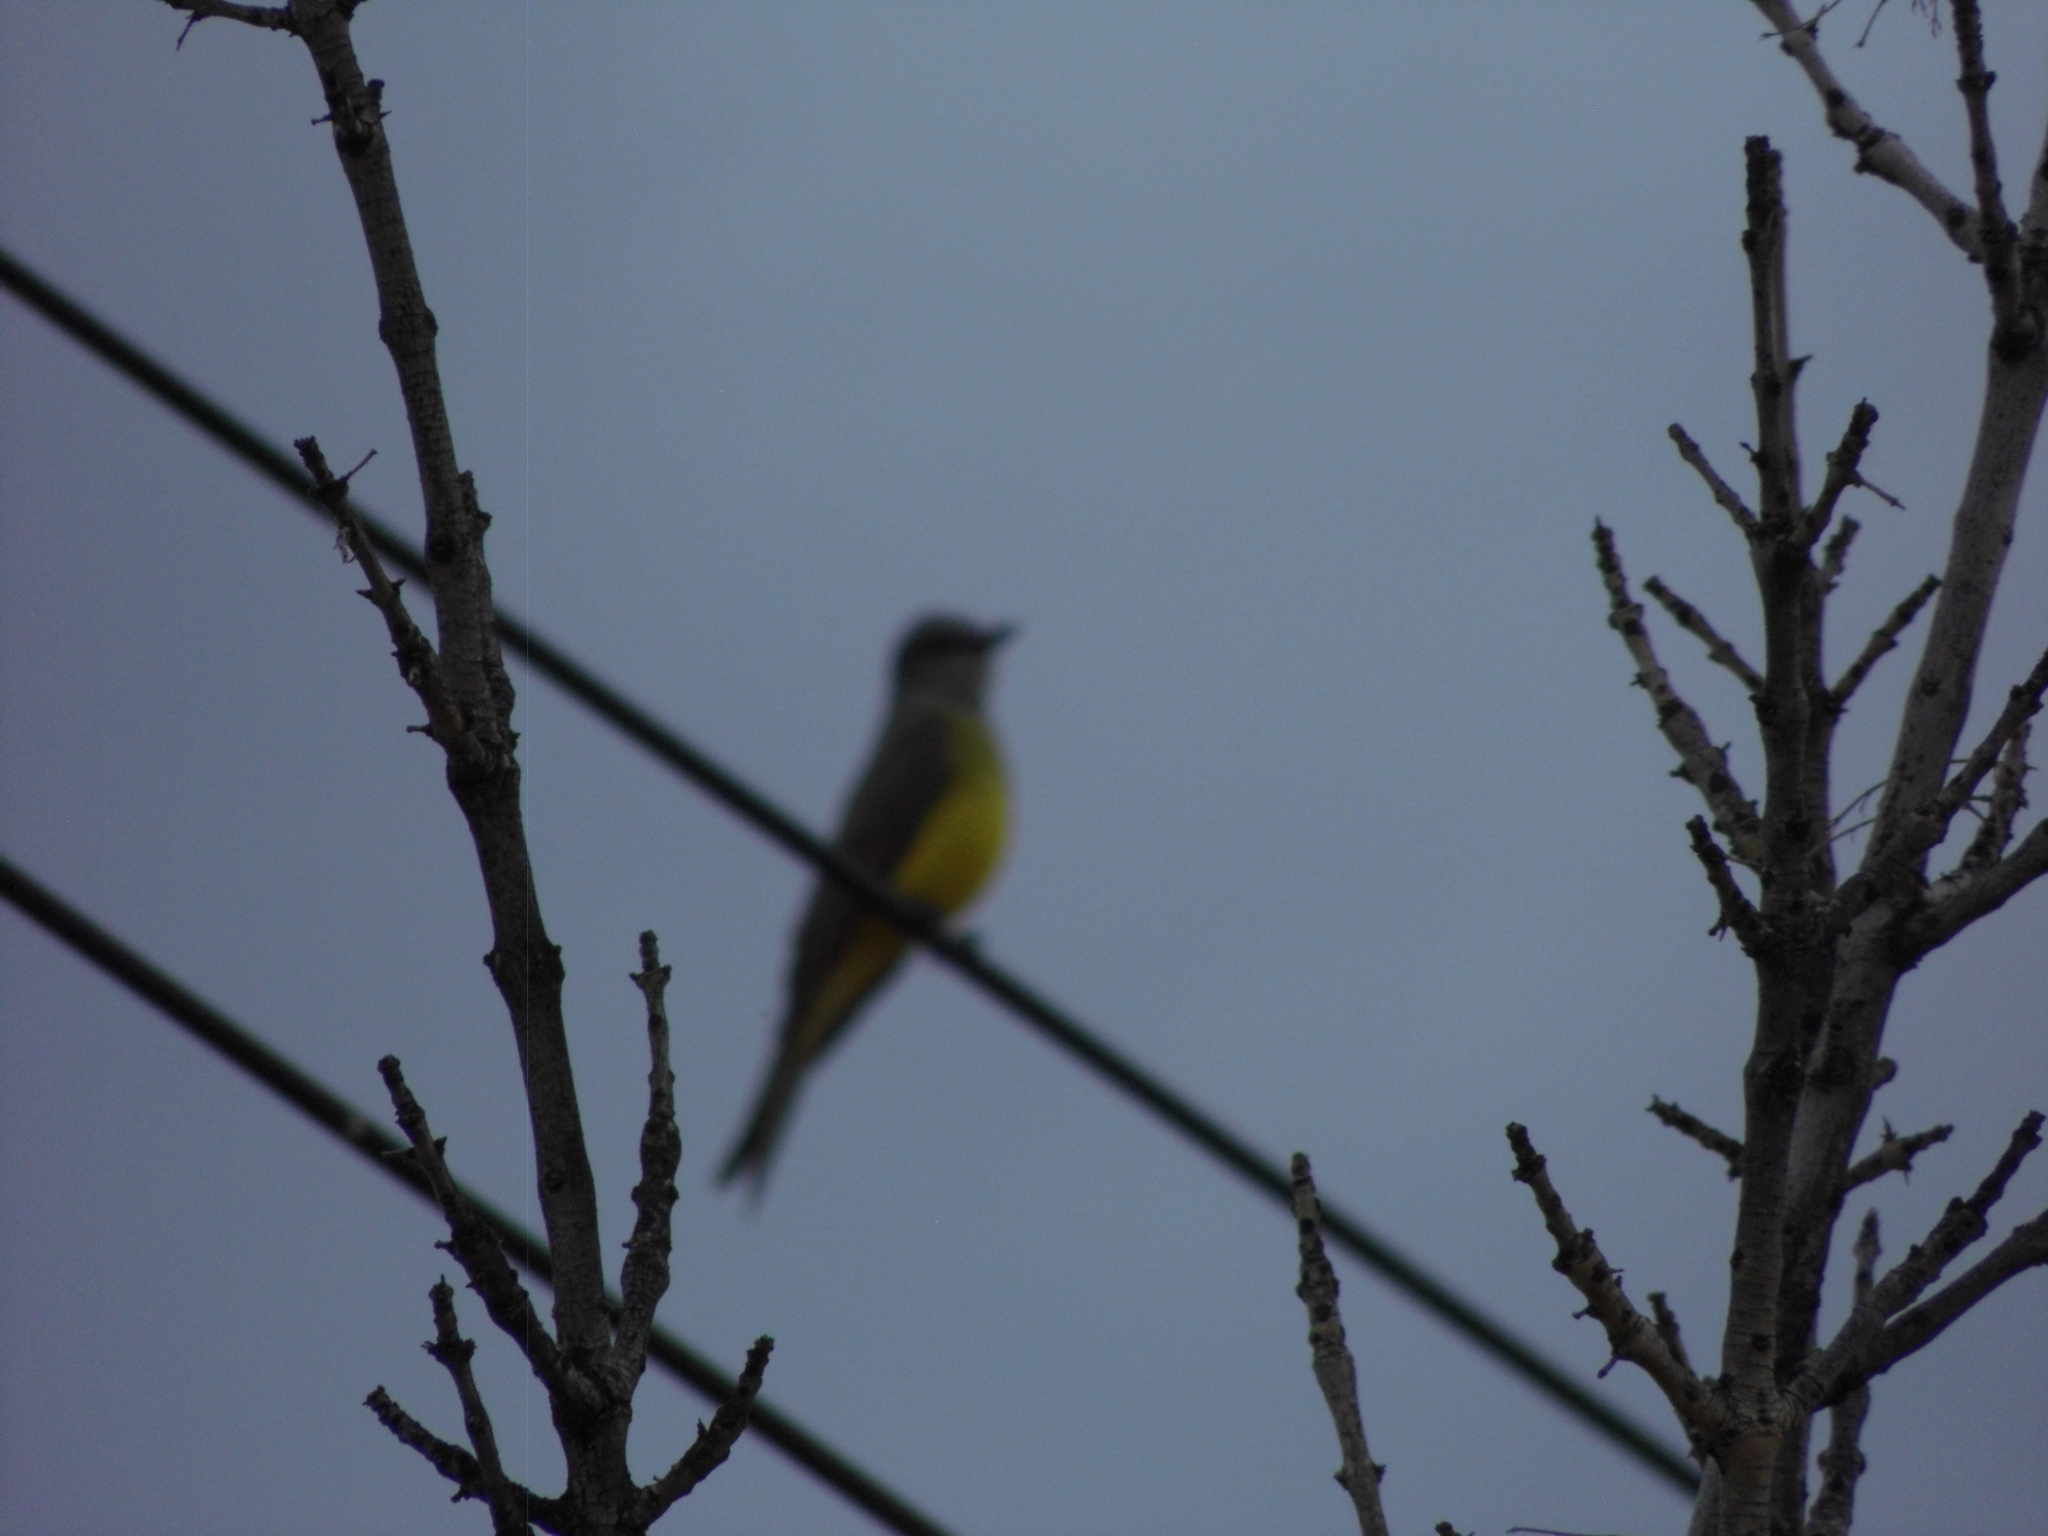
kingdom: Animalia
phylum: Chordata
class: Aves
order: Passeriformes
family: Tyrannidae
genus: Tyrannus
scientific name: Tyrannus melancholicus
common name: Tropical kingbird
